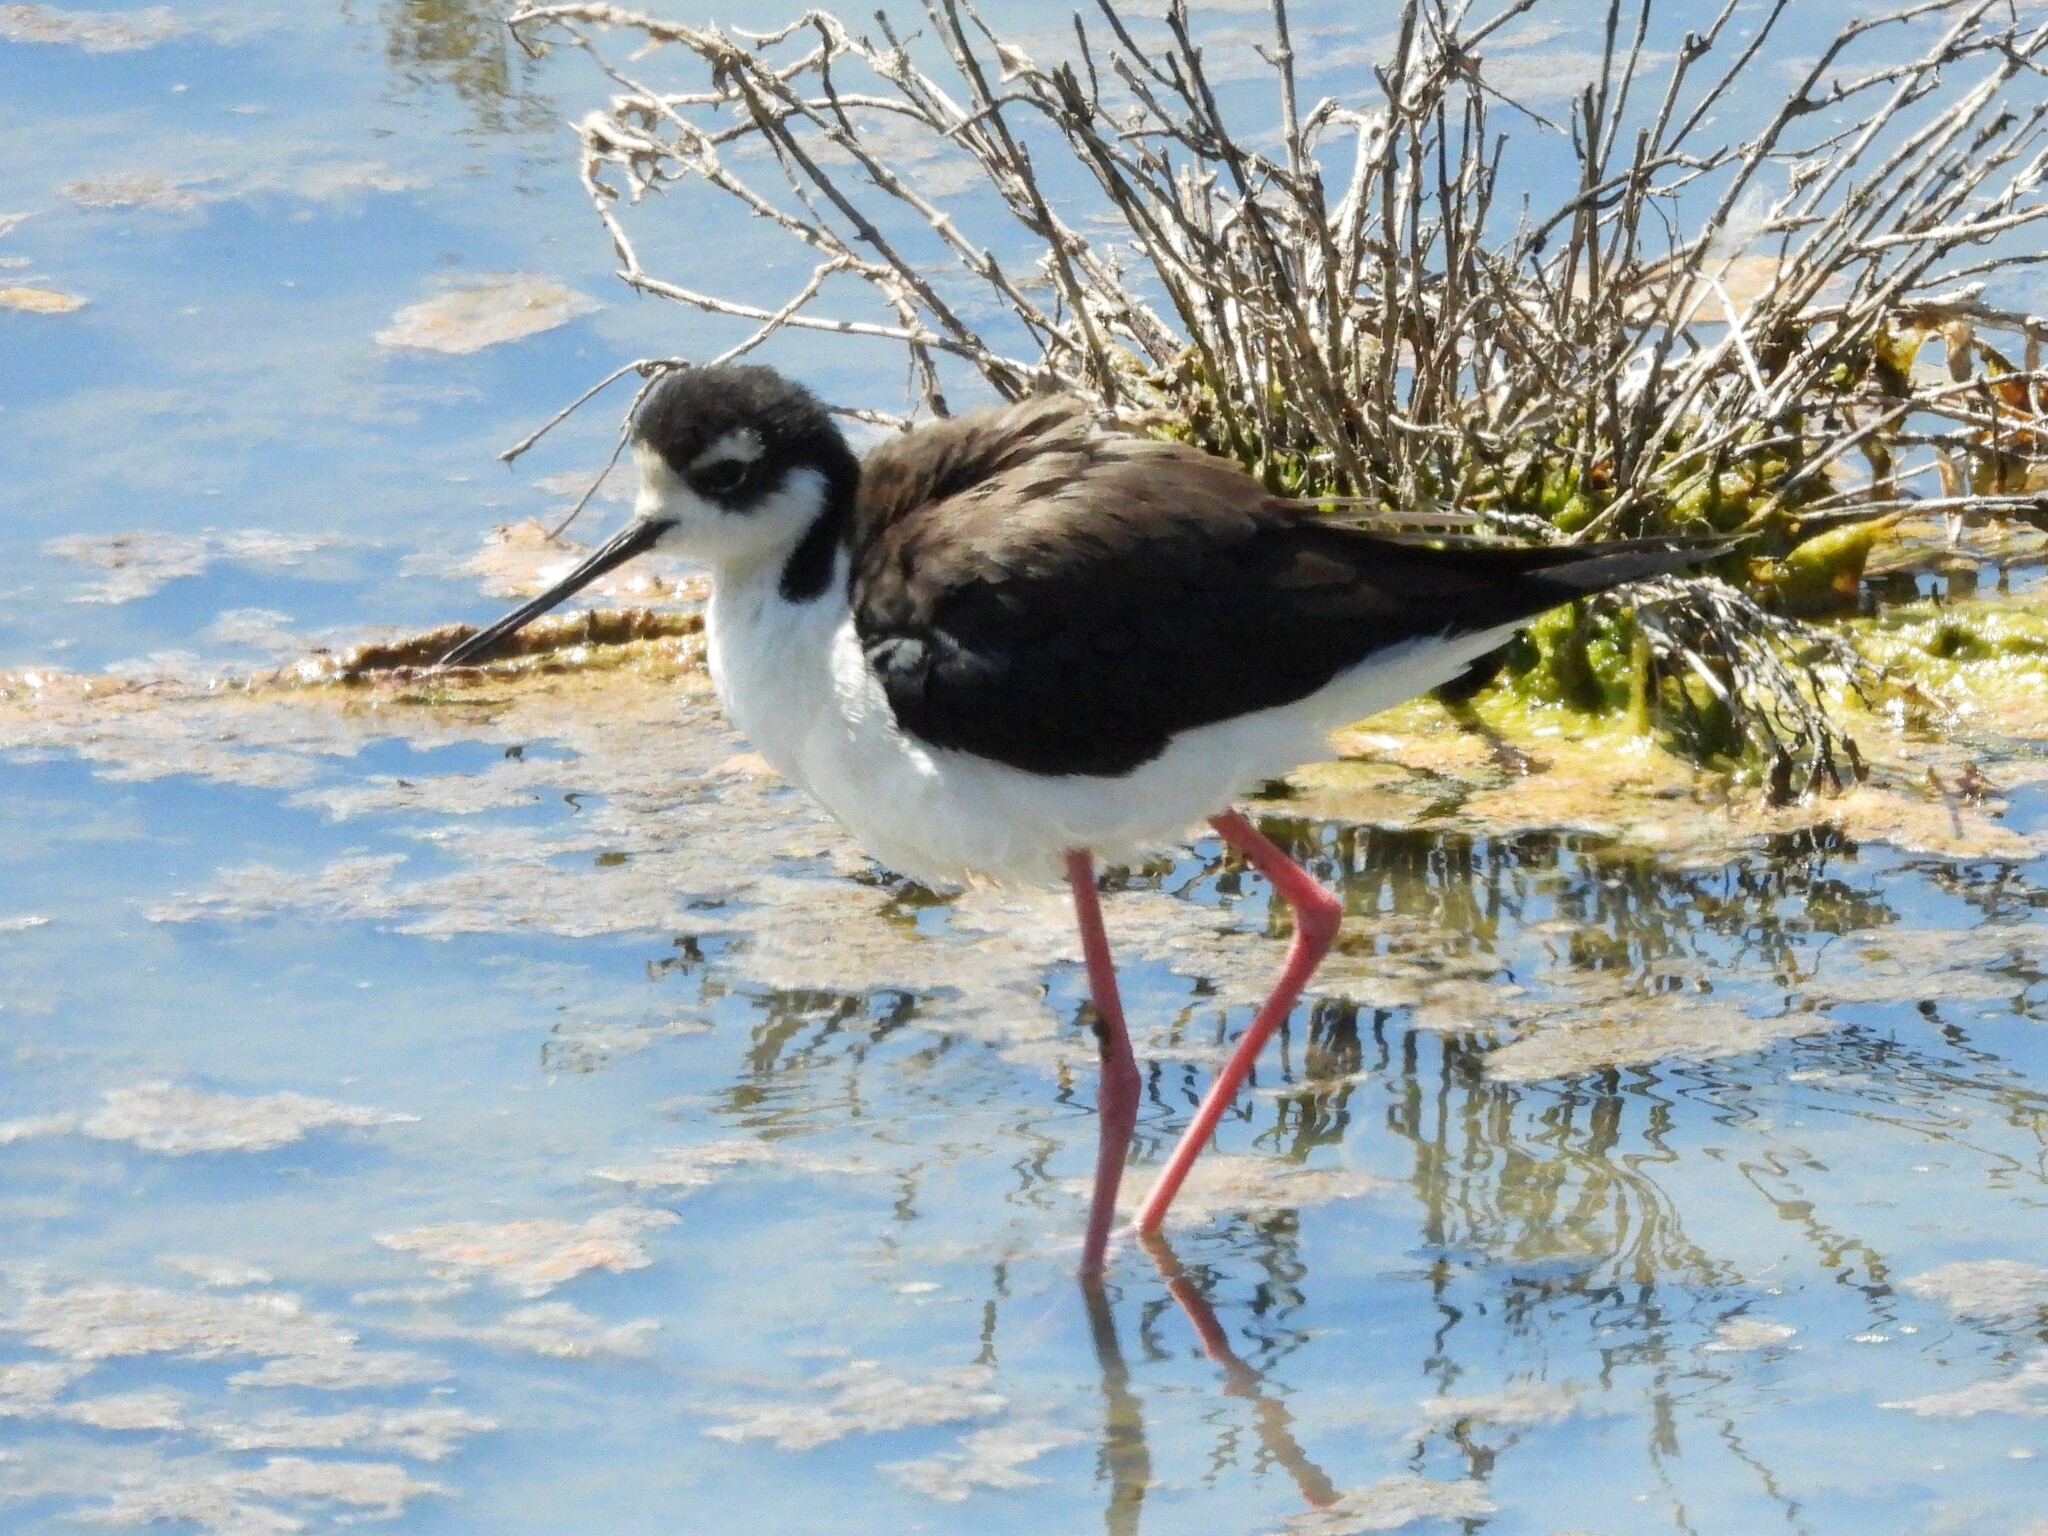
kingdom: Animalia
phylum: Chordata
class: Aves
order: Charadriiformes
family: Recurvirostridae
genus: Himantopus
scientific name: Himantopus mexicanus
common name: Black-necked stilt
